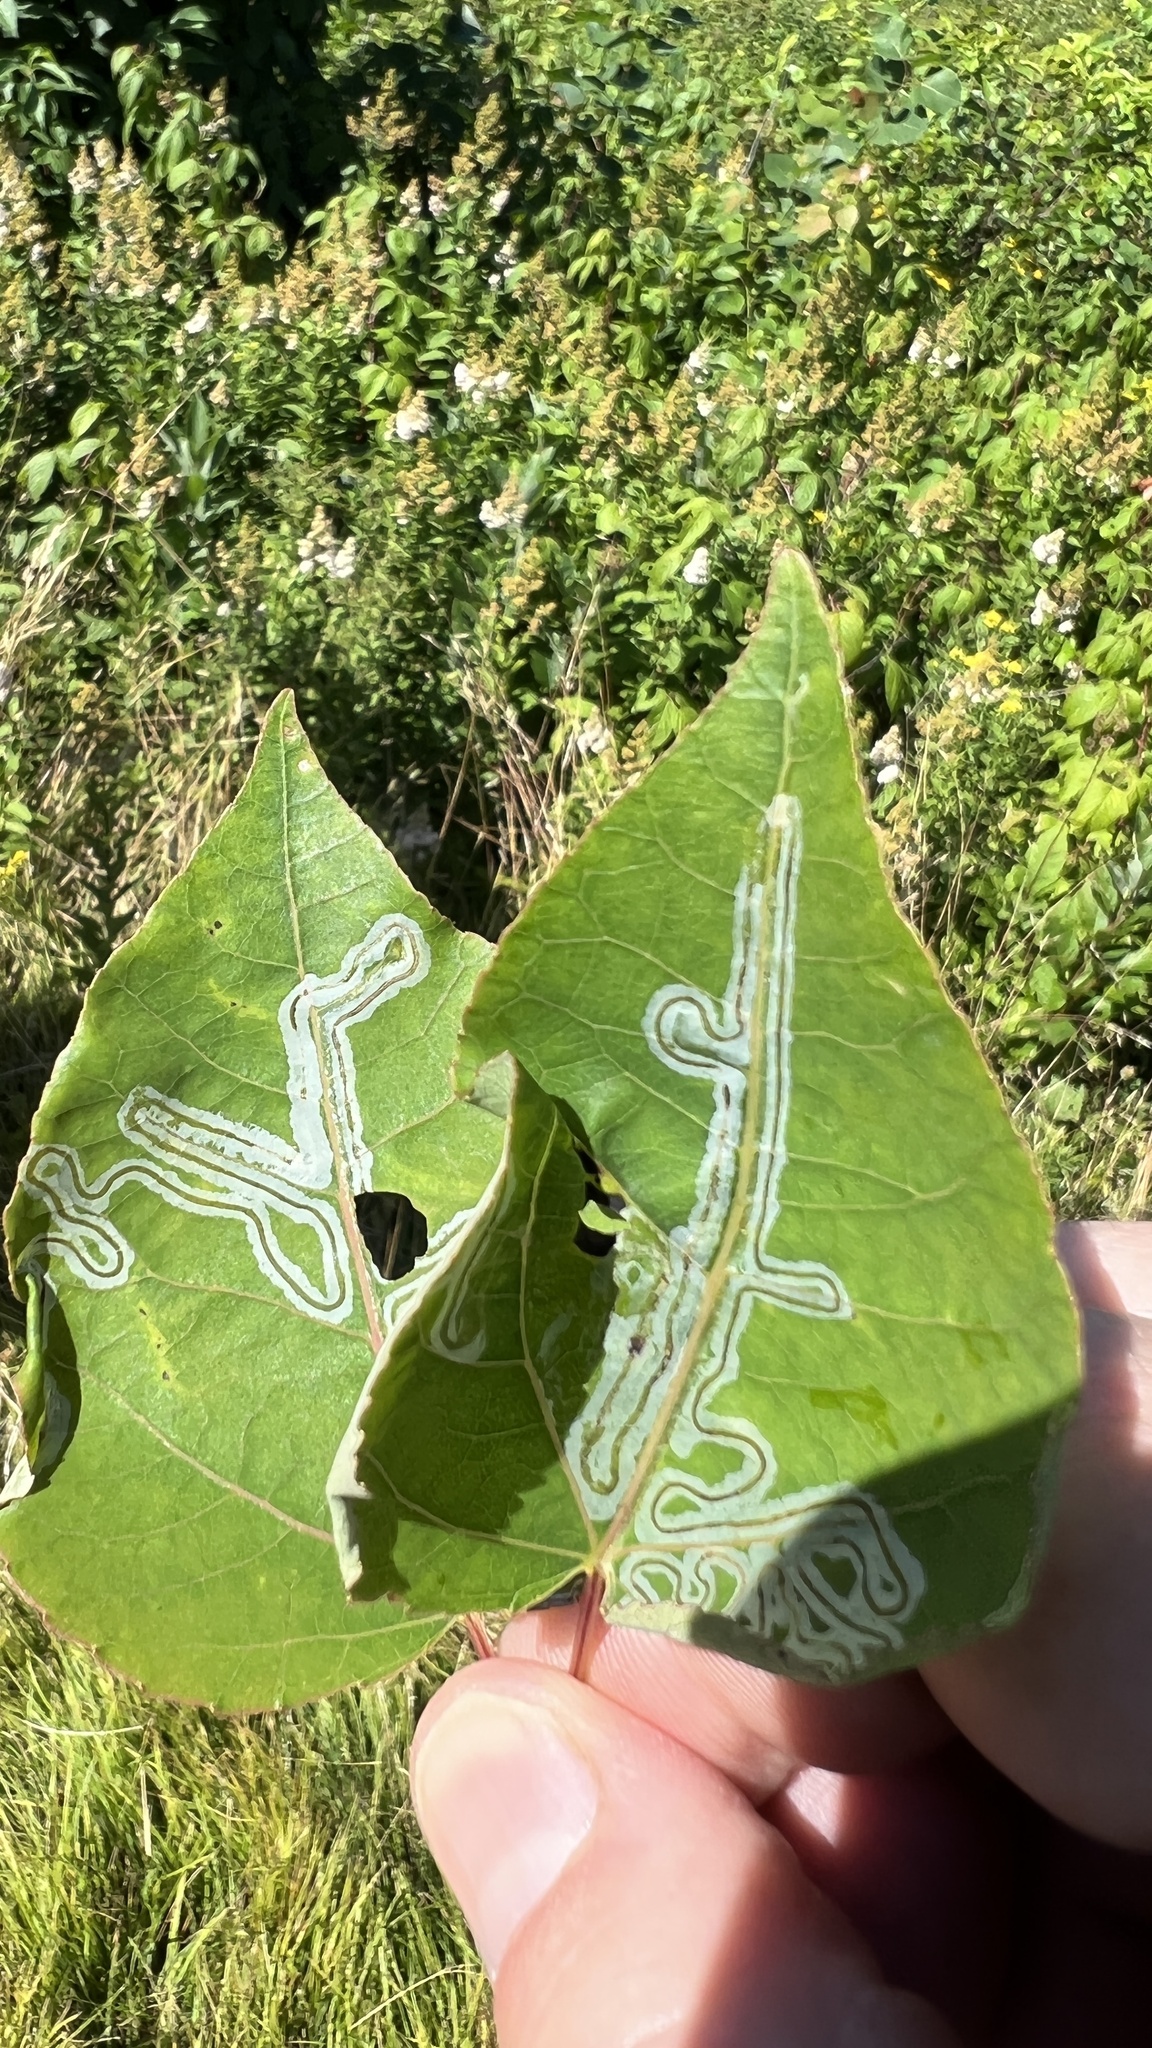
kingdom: Animalia
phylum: Arthropoda
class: Insecta
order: Lepidoptera
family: Gracillariidae
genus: Phyllocnistis
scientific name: Phyllocnistis populiella
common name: Aspen serpentine leafminer moth
